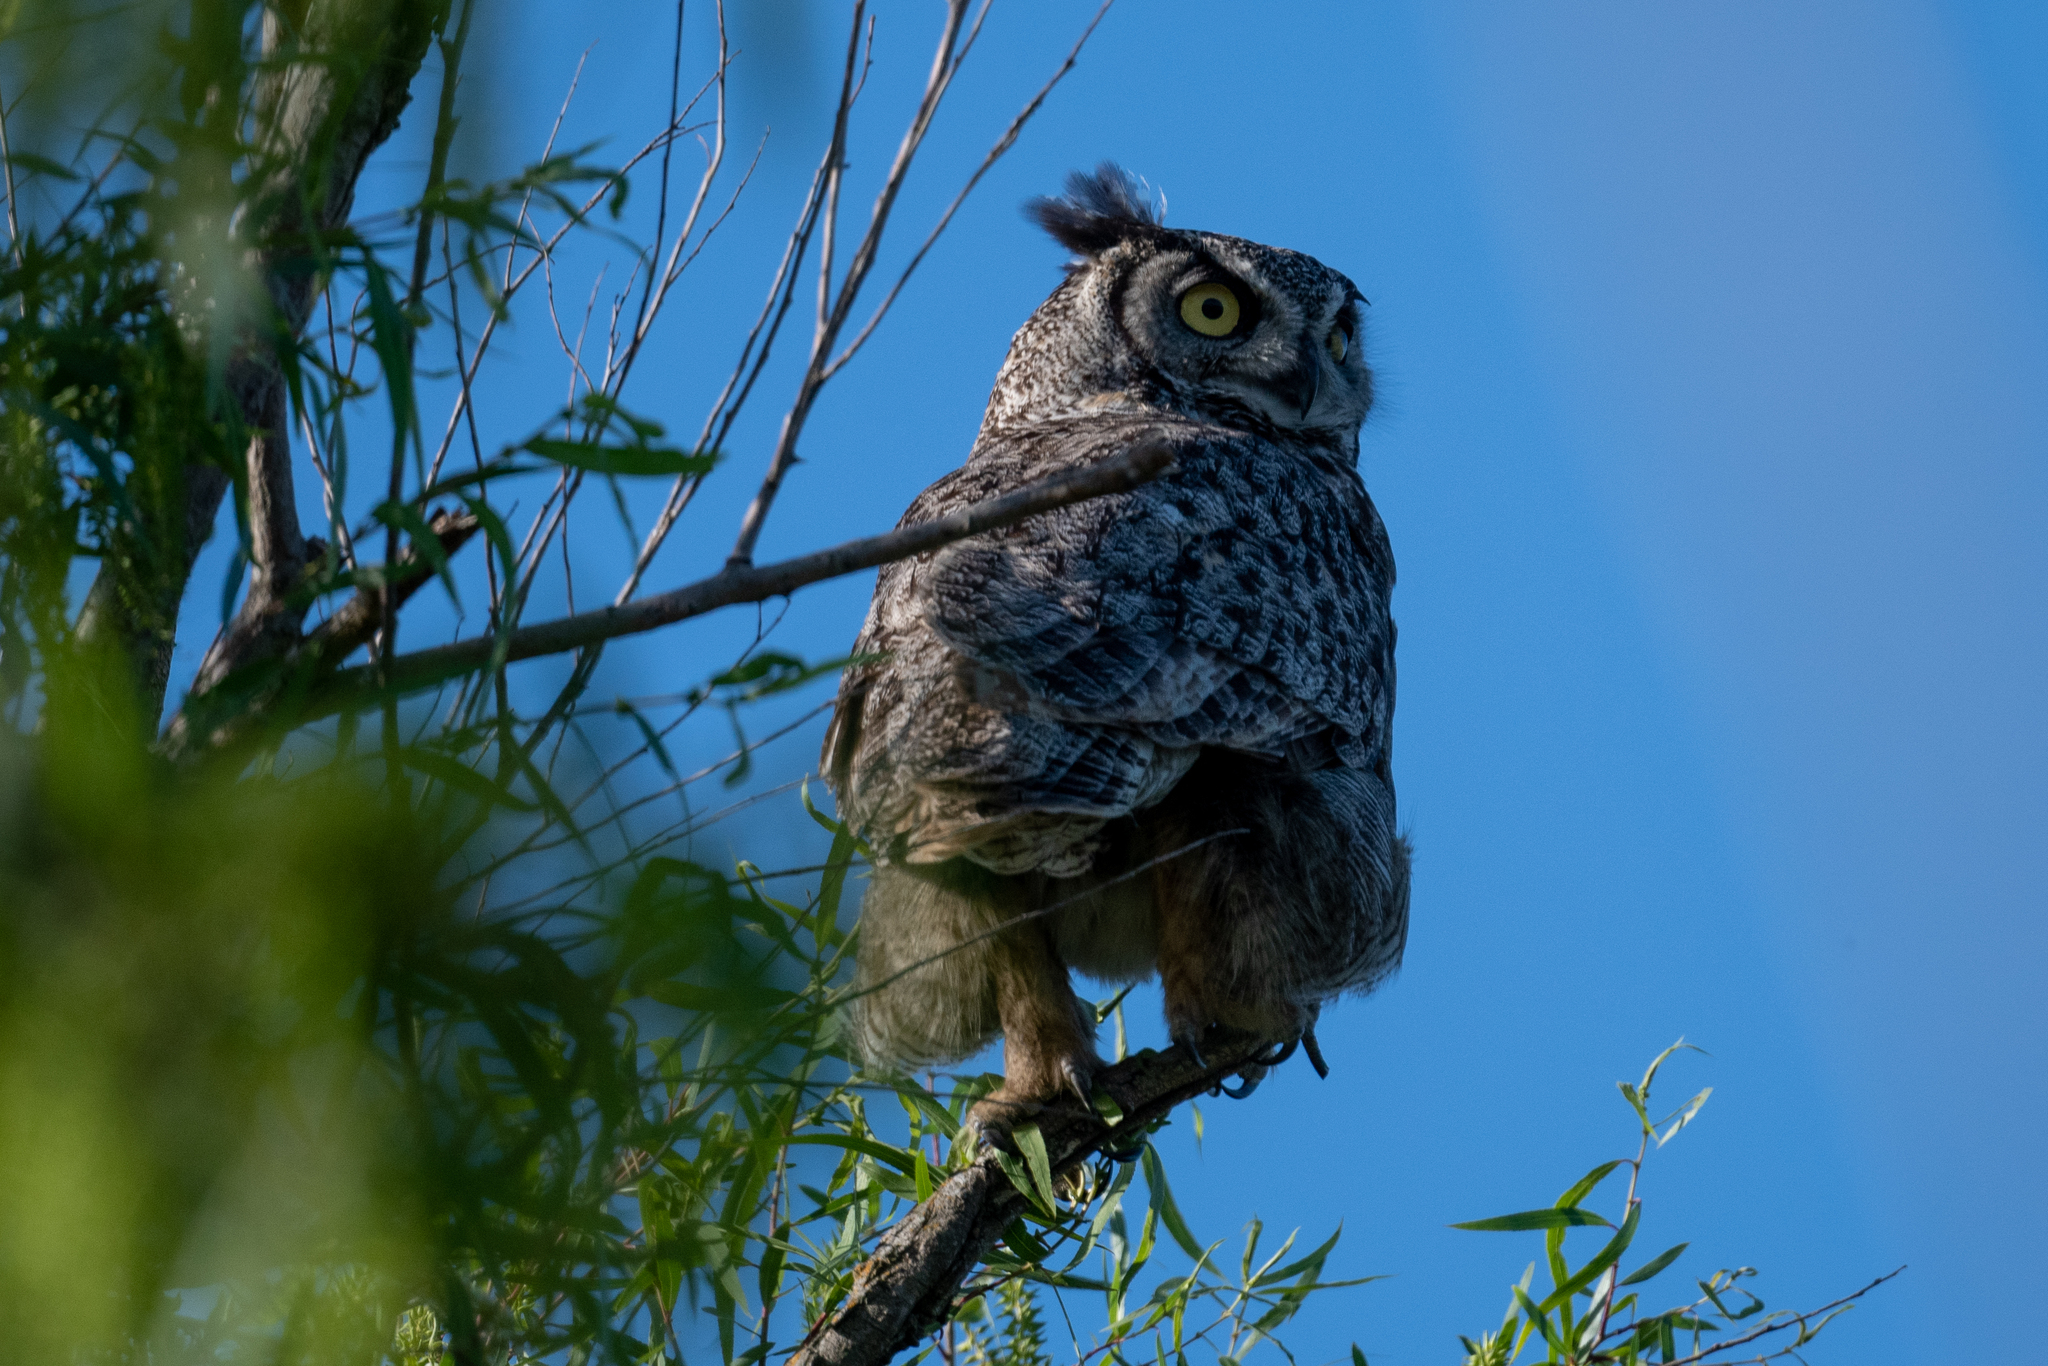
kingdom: Animalia
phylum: Chordata
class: Aves
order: Strigiformes
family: Strigidae
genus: Bubo
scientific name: Bubo virginianus
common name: Great horned owl
